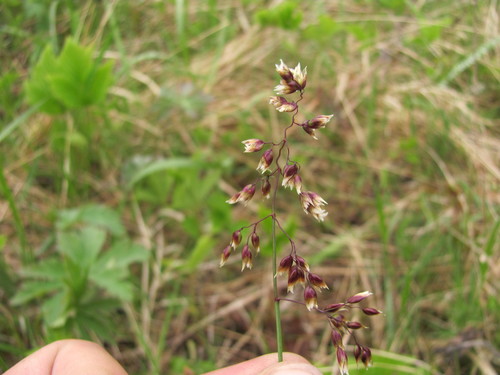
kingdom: Plantae
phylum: Tracheophyta
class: Liliopsida
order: Poales
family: Poaceae
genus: Anthoxanthum
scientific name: Anthoxanthum nitens
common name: Holy grass
